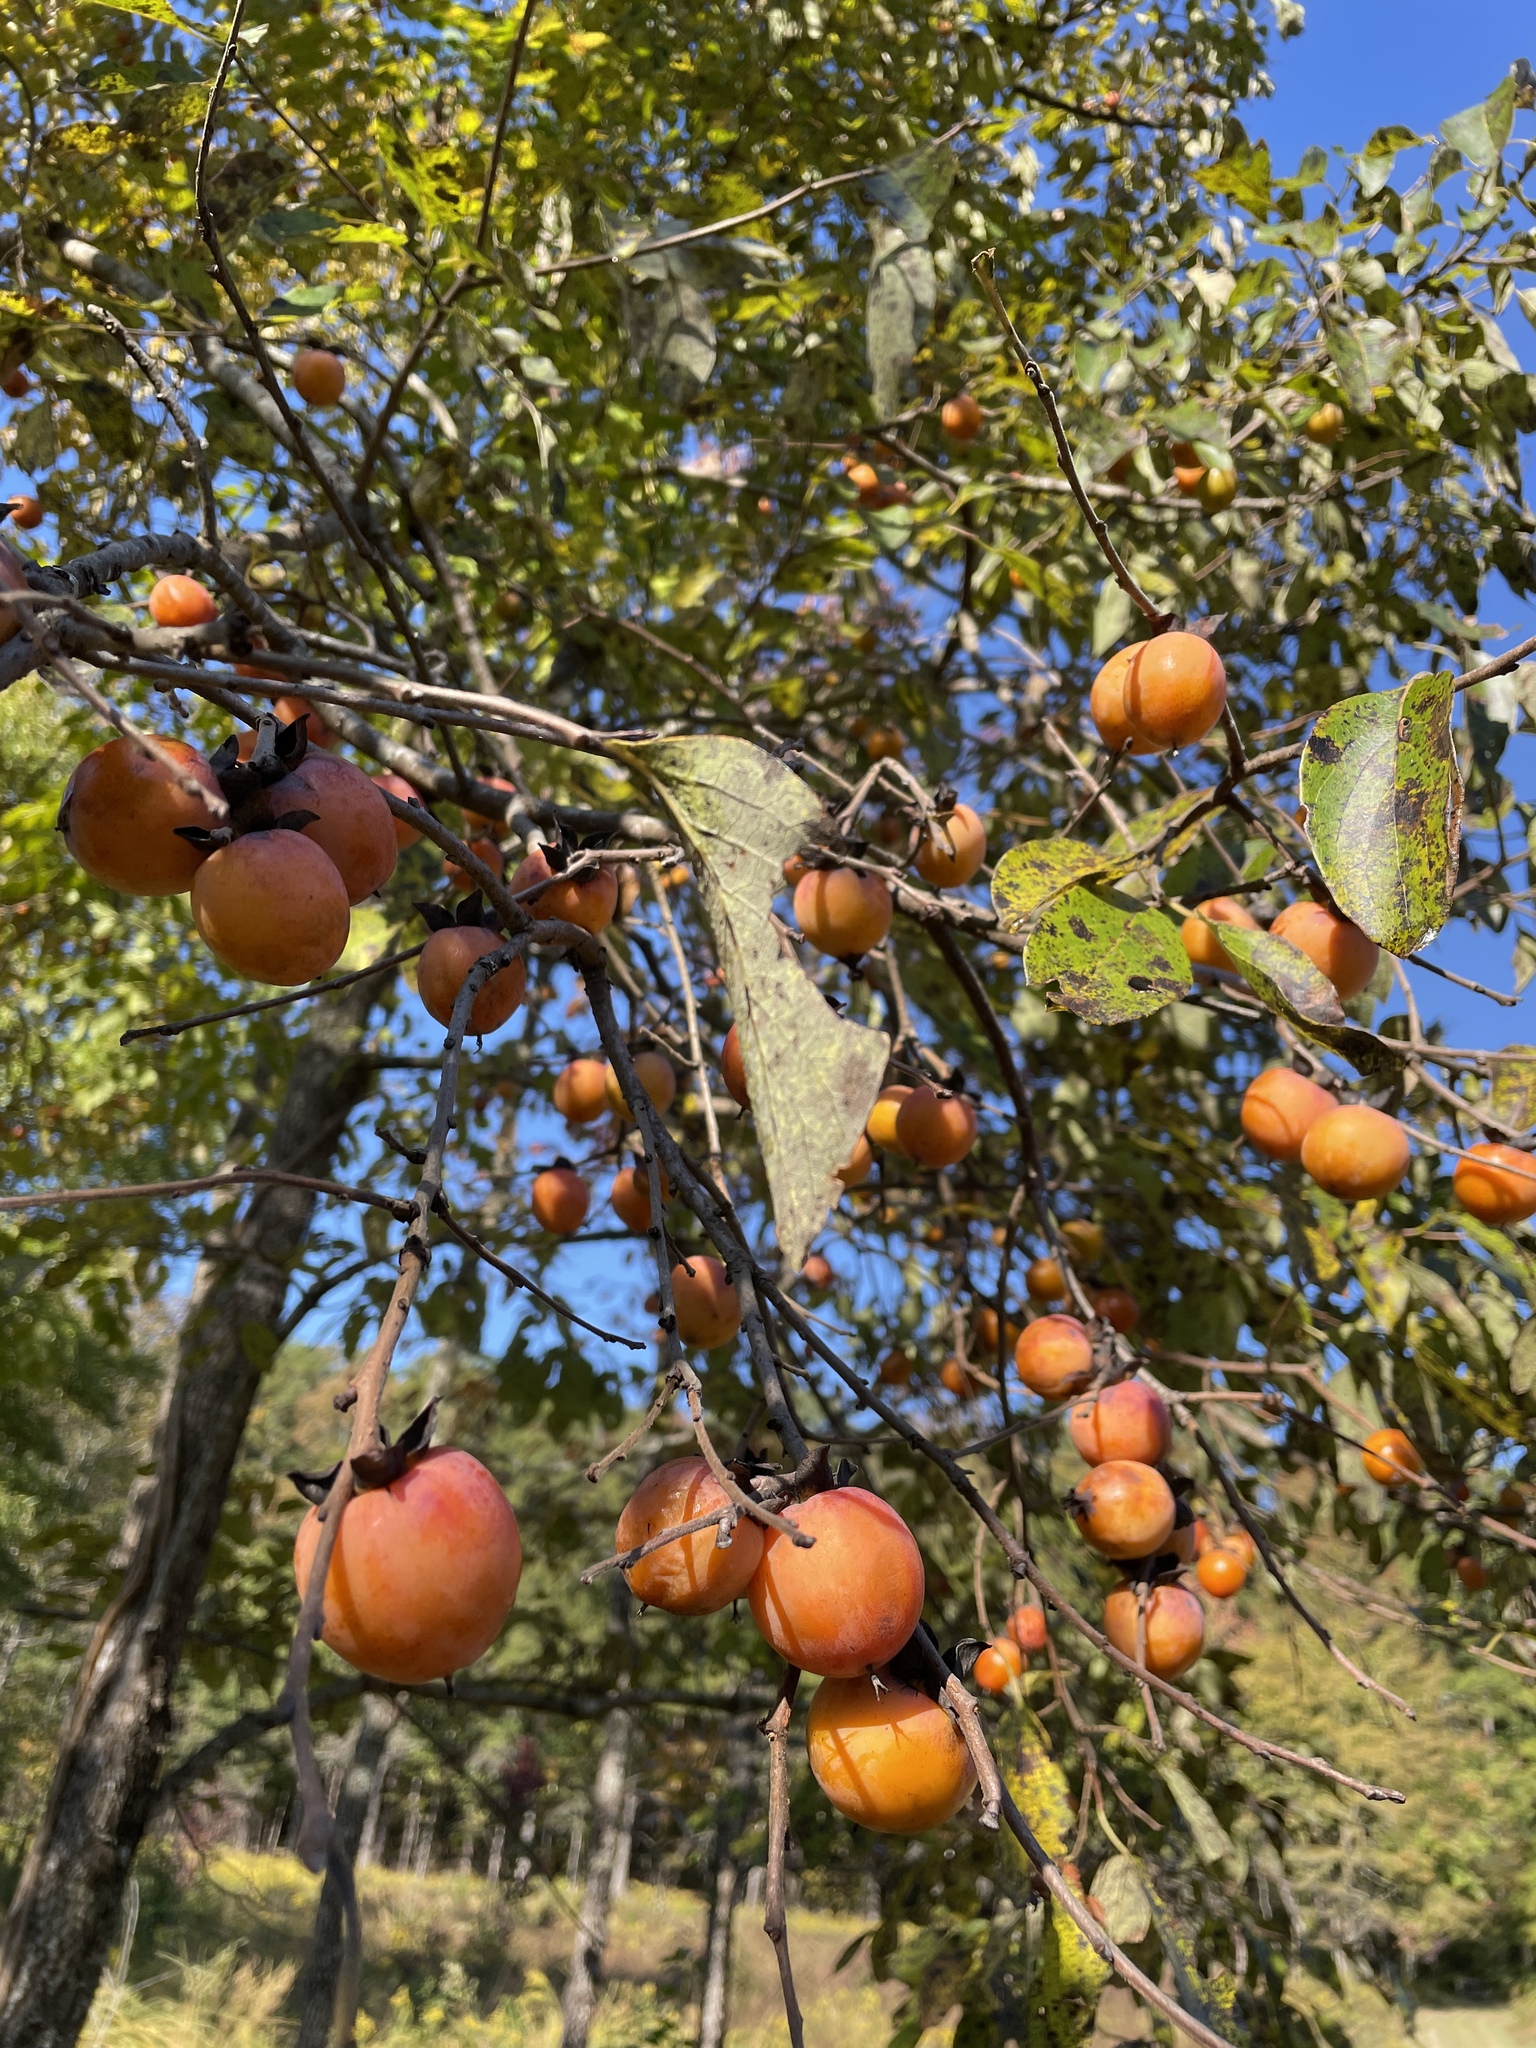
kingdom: Plantae
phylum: Tracheophyta
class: Magnoliopsida
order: Ericales
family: Ebenaceae
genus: Diospyros
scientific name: Diospyros virginiana
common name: Persimmon
